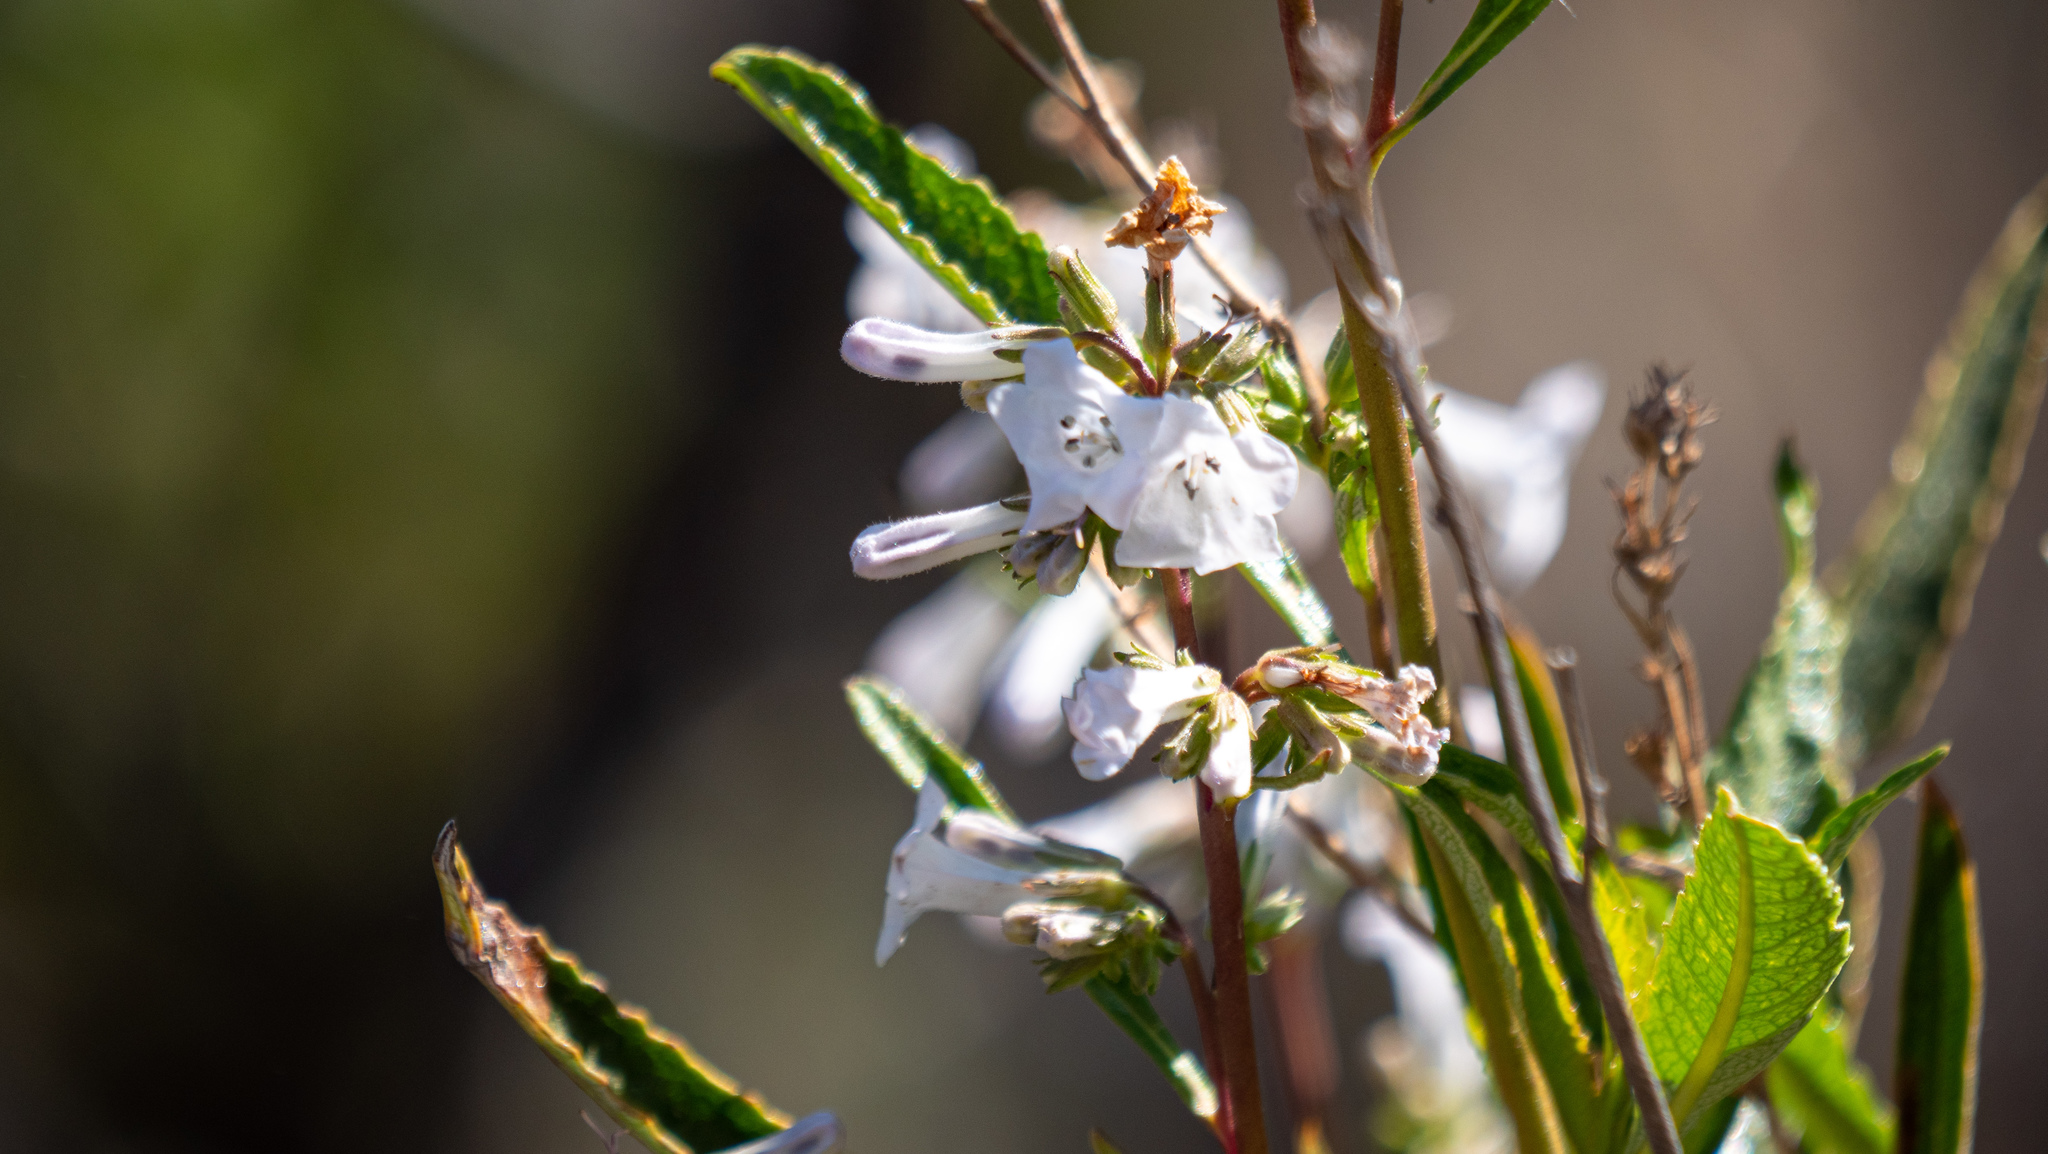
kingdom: Plantae
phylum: Tracheophyta
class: Magnoliopsida
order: Boraginales
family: Namaceae
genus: Eriodictyon
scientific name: Eriodictyon californicum
